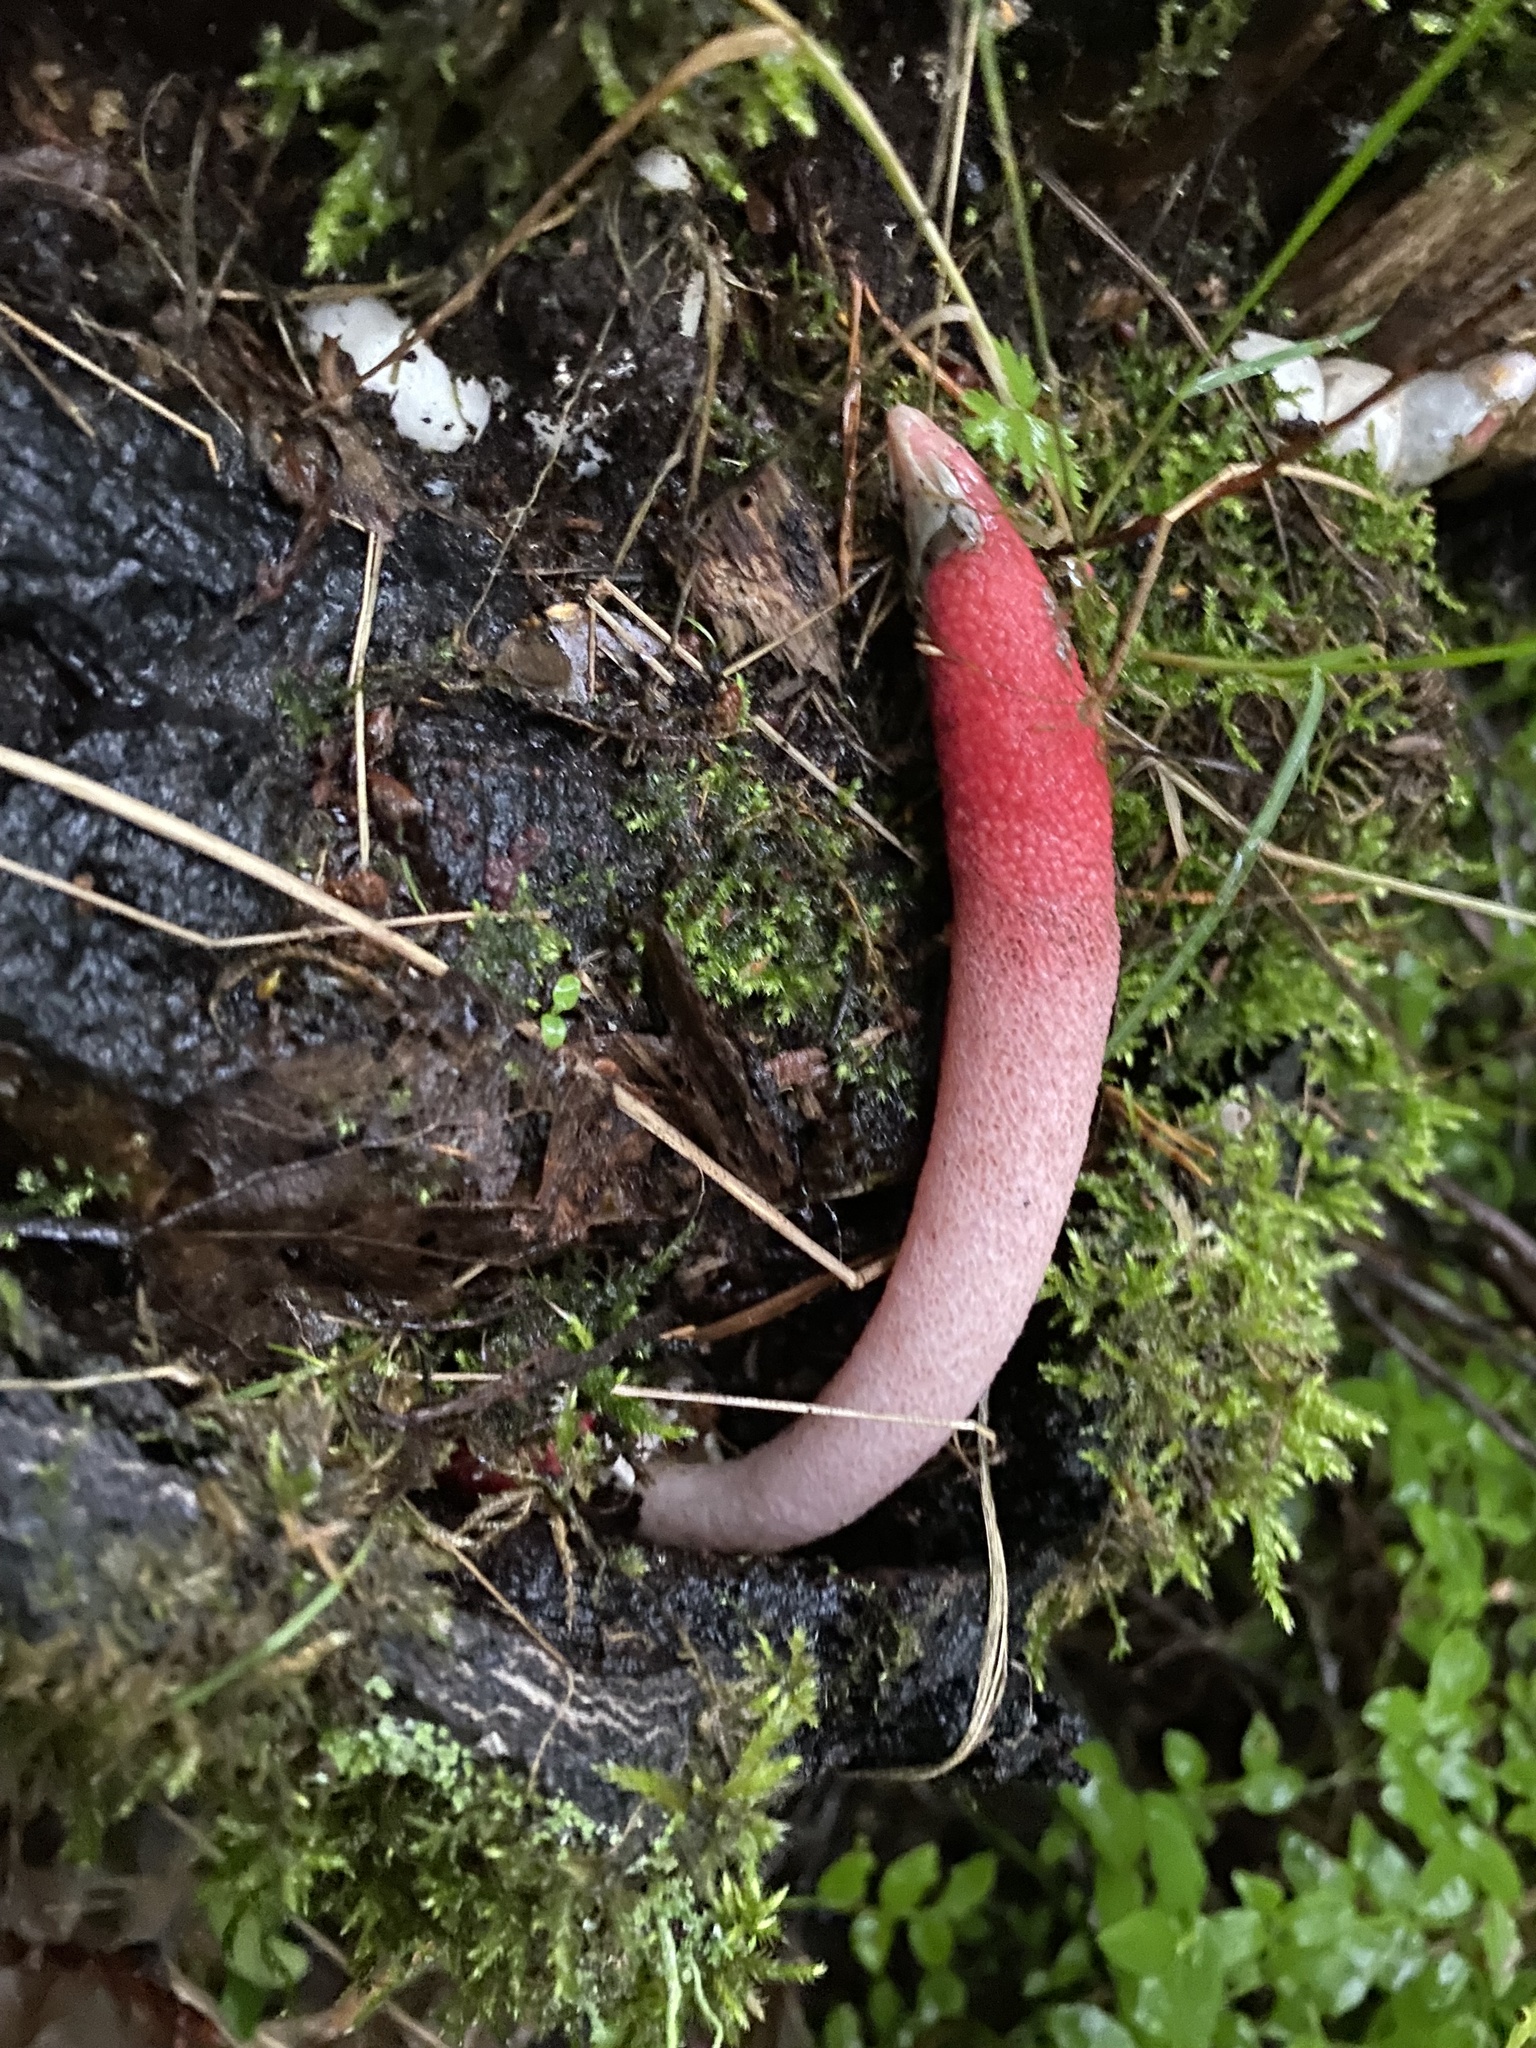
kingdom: Fungi
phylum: Basidiomycota
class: Agaricomycetes
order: Phallales
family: Phallaceae
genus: Mutinus
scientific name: Mutinus ravenelii
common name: Red stinkhorn
